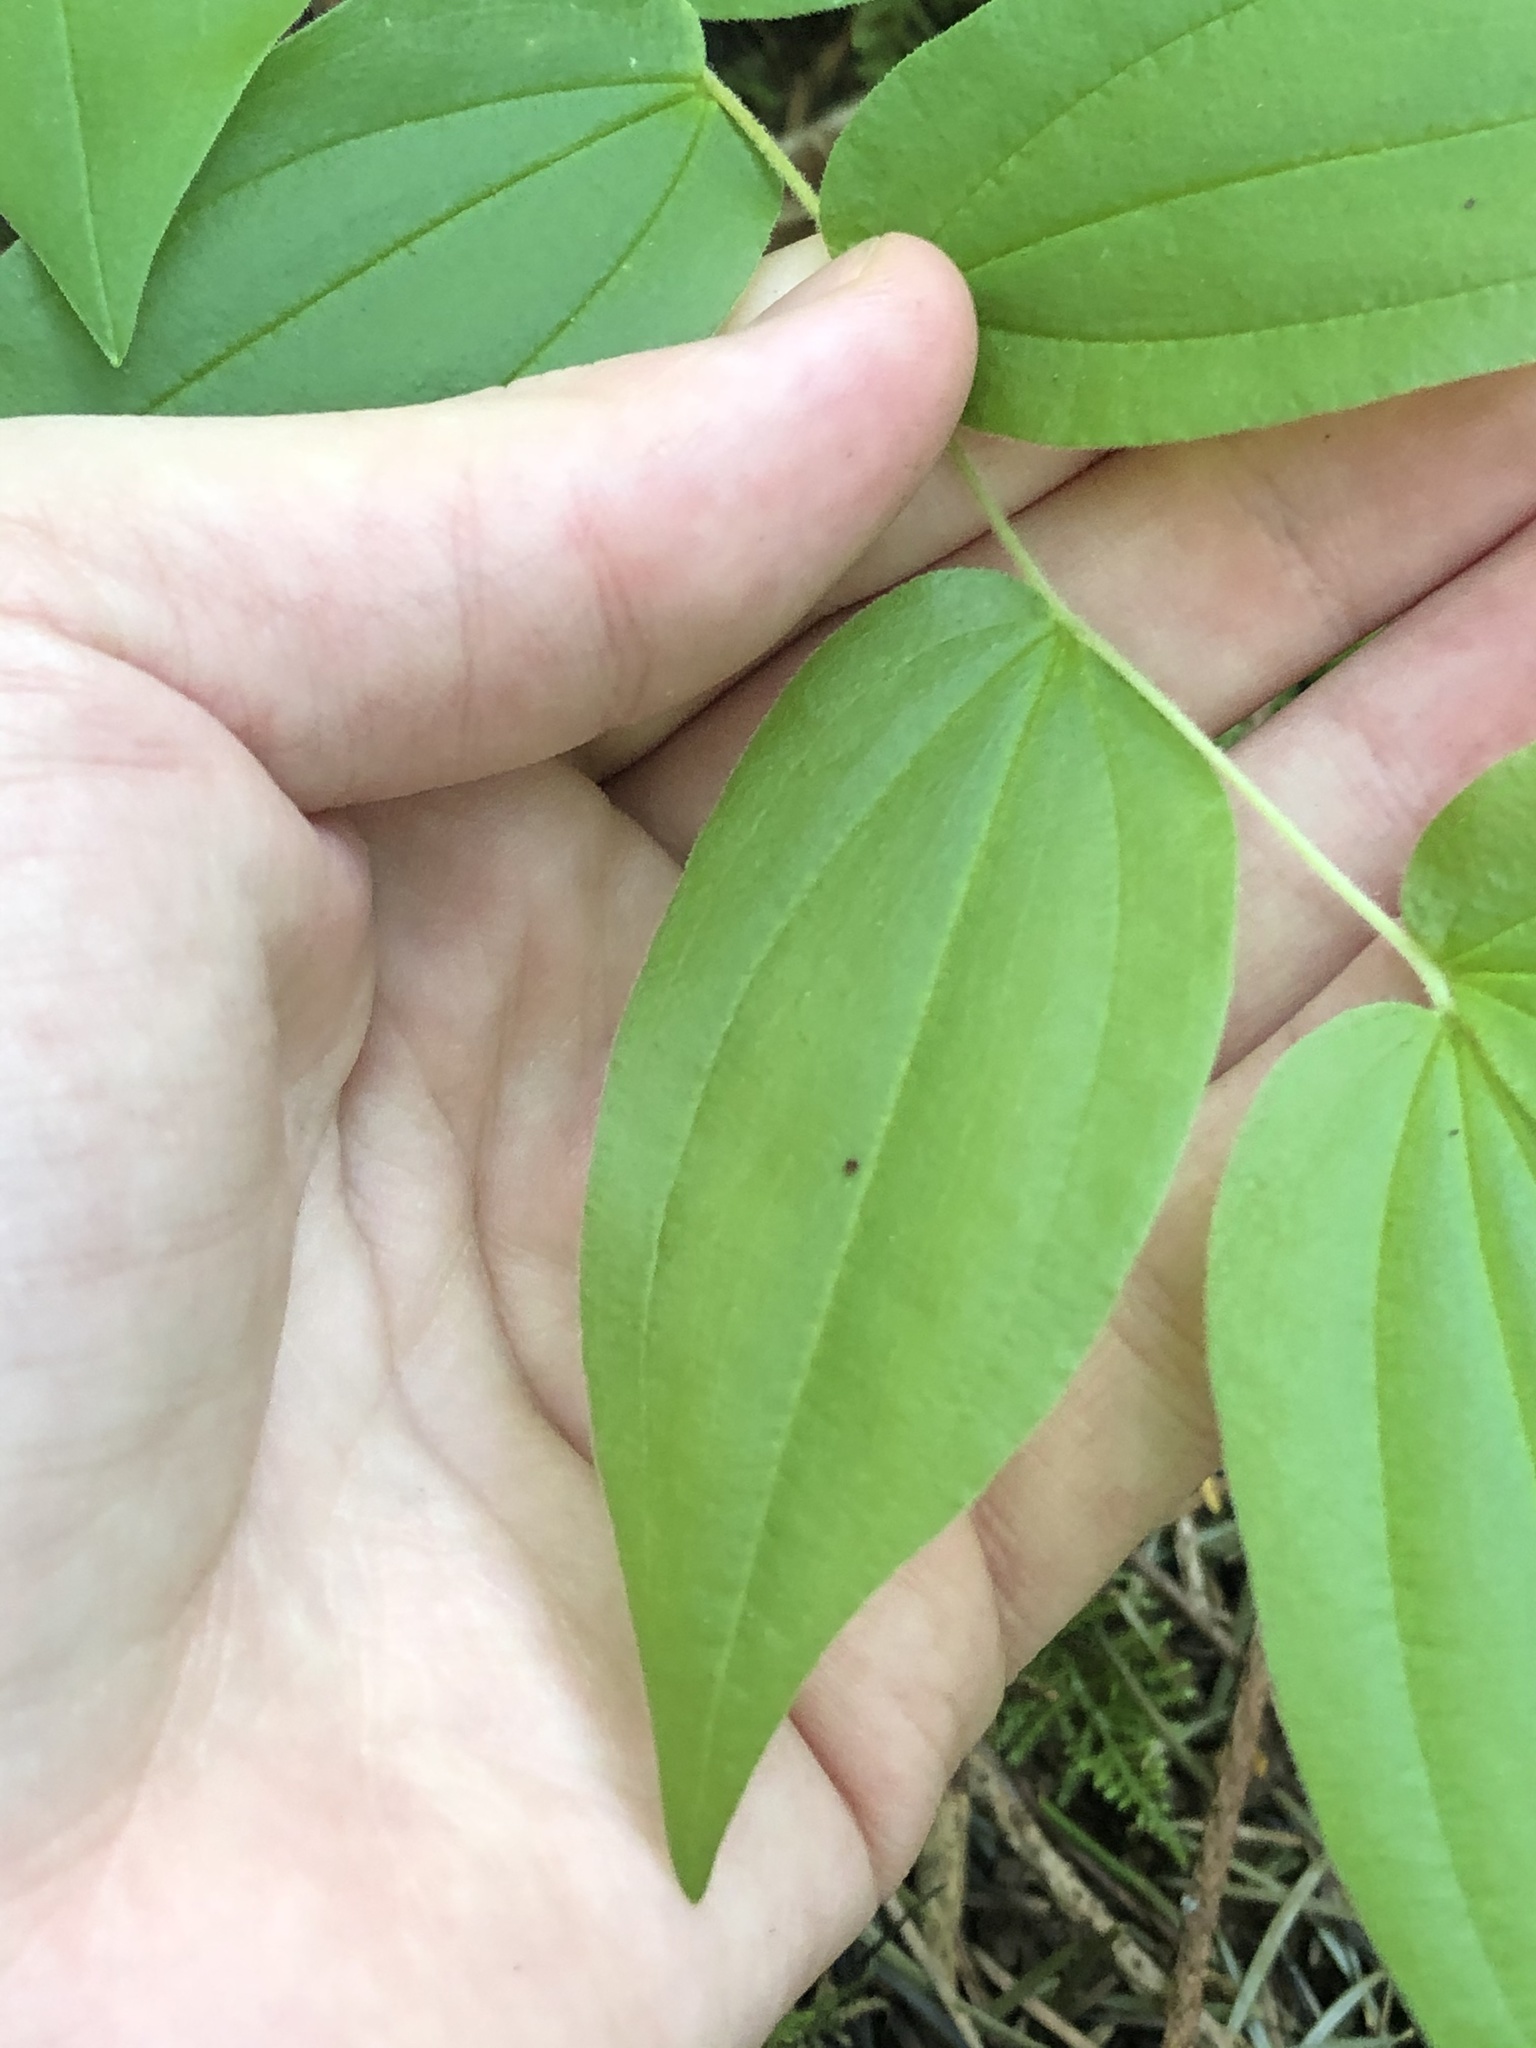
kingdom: Plantae
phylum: Tracheophyta
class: Liliopsida
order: Liliales
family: Liliaceae
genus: Prosartes
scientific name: Prosartes hookeri
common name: Fairy-bells
